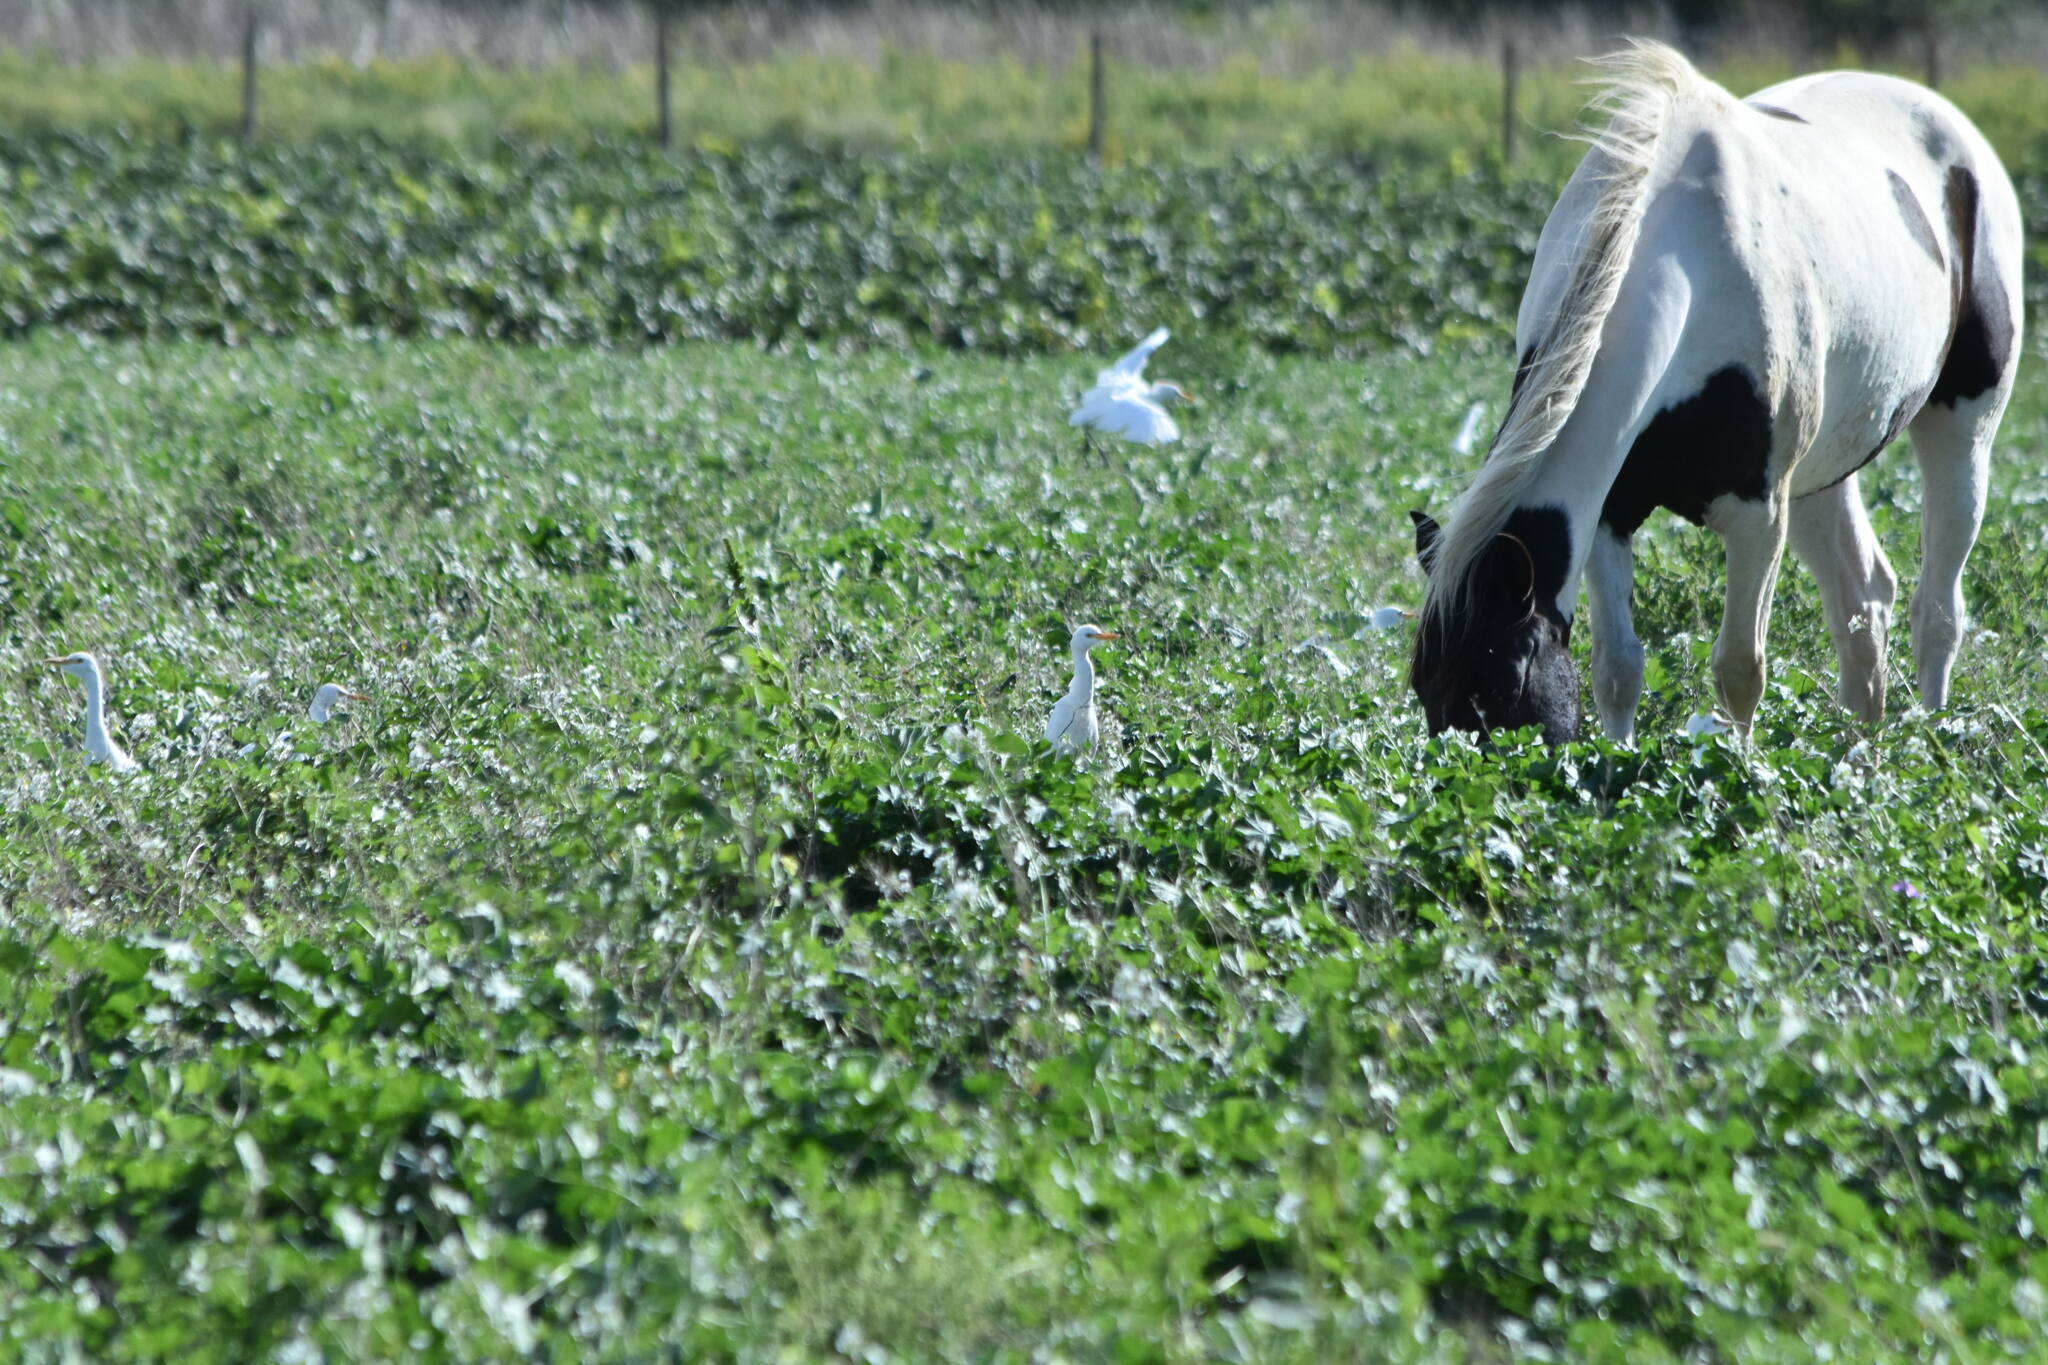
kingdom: Animalia
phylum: Chordata
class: Aves
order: Pelecaniformes
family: Ardeidae
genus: Bubulcus
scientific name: Bubulcus ibis
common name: Cattle egret
